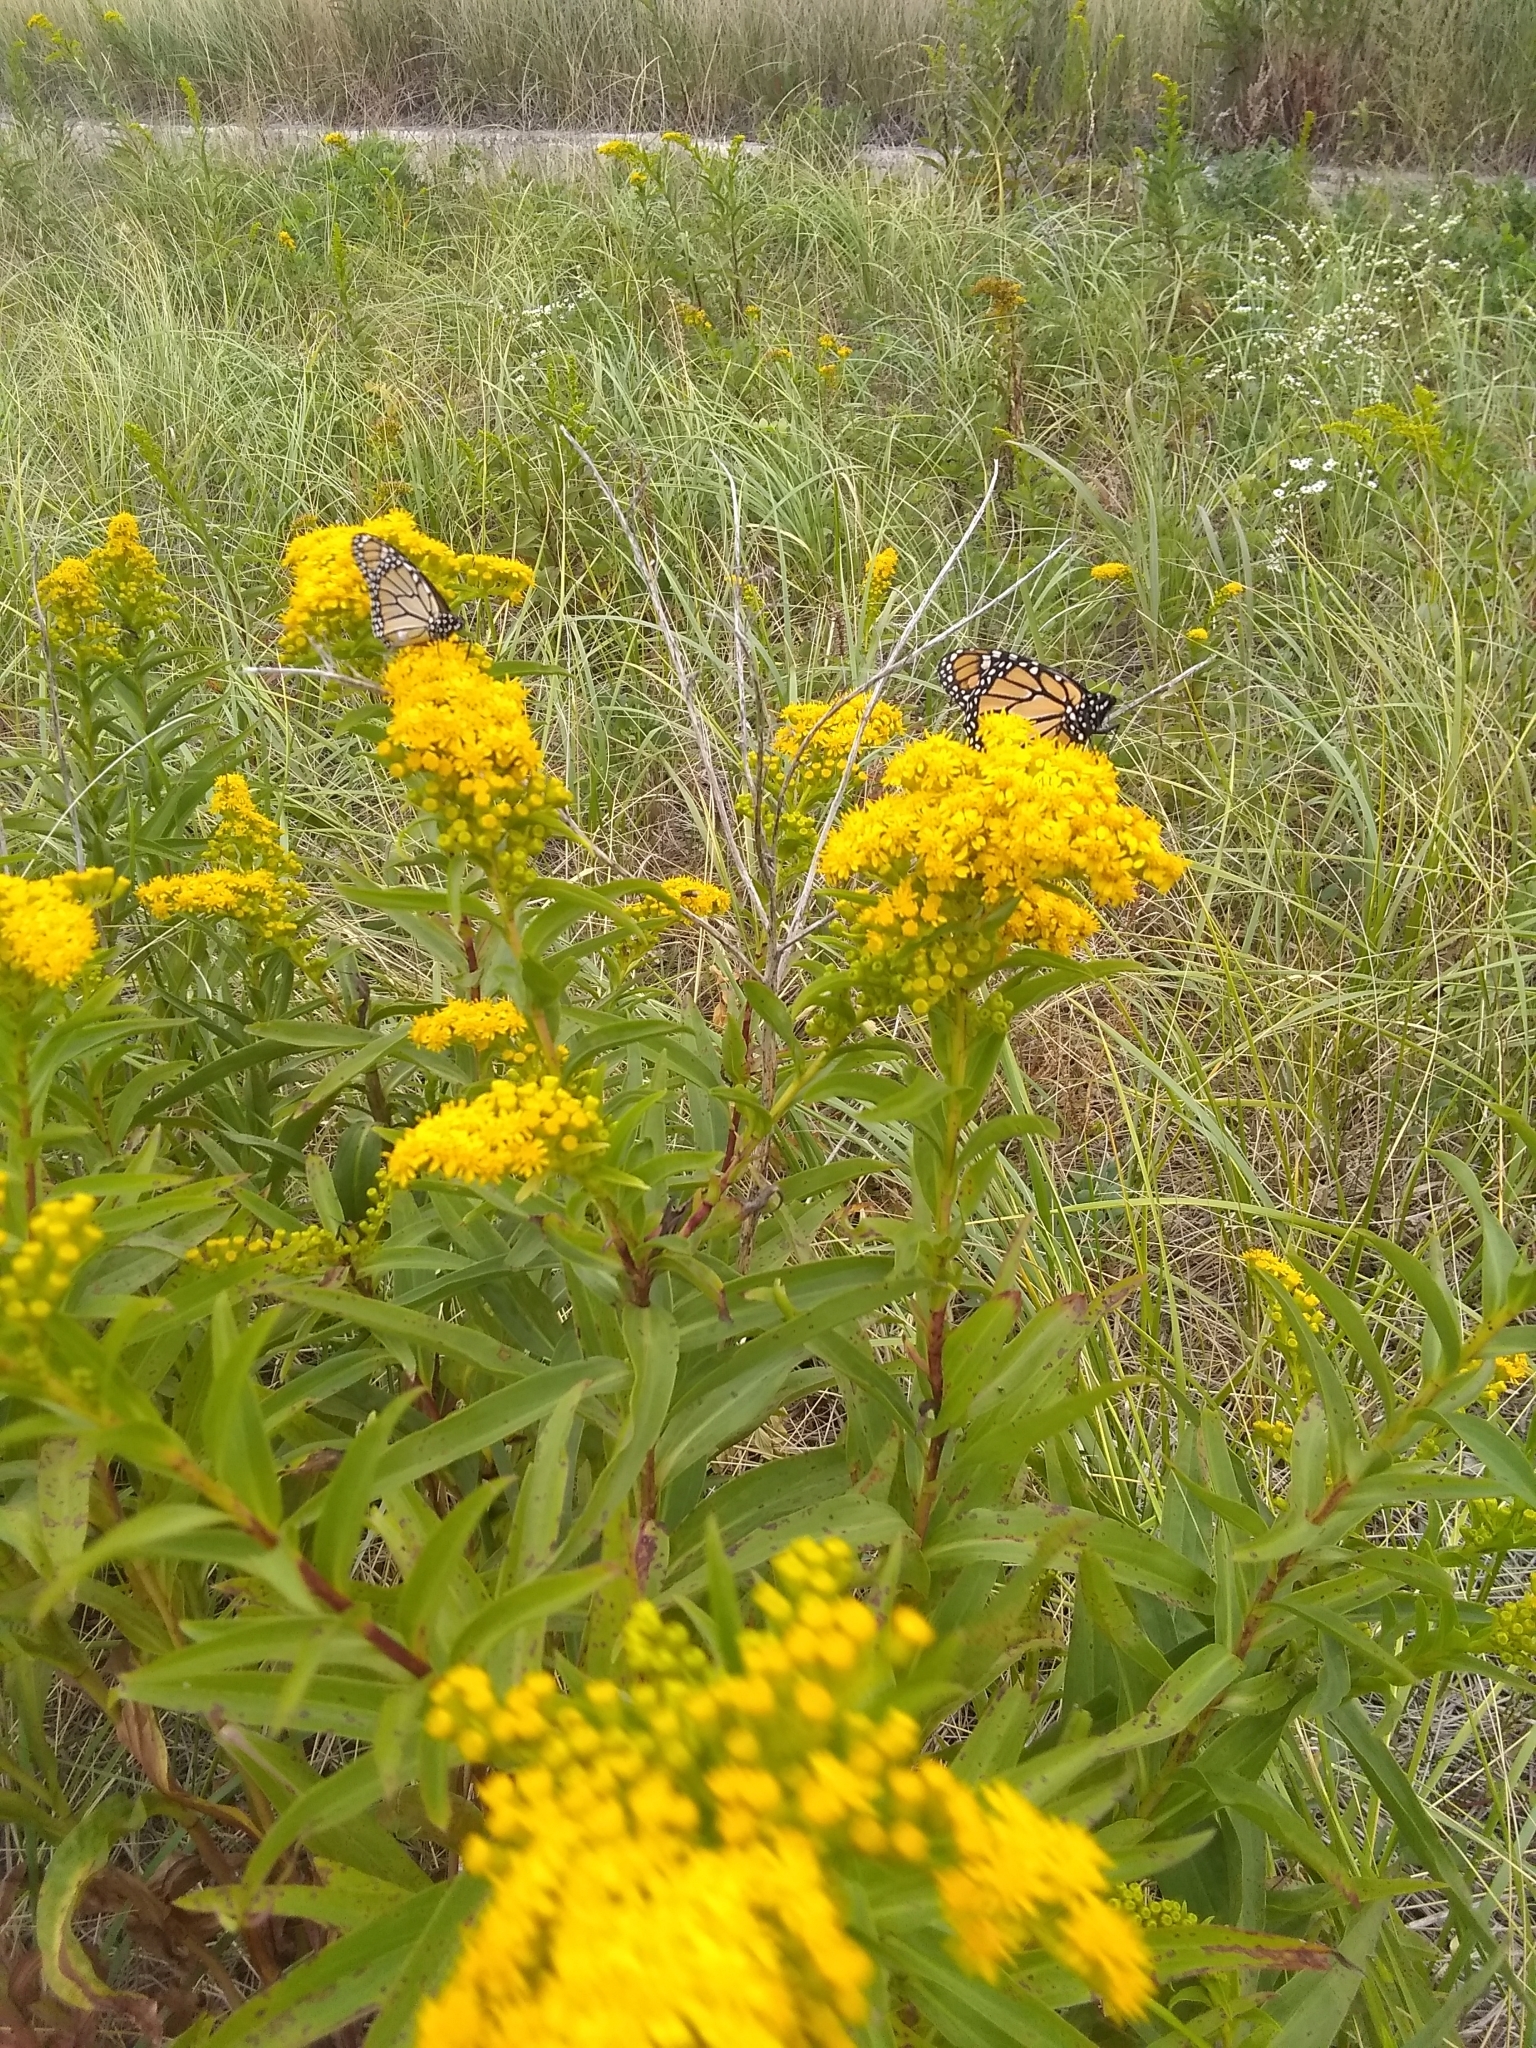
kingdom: Animalia
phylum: Arthropoda
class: Insecta
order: Lepidoptera
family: Nymphalidae
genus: Danaus
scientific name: Danaus plexippus
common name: Monarch
